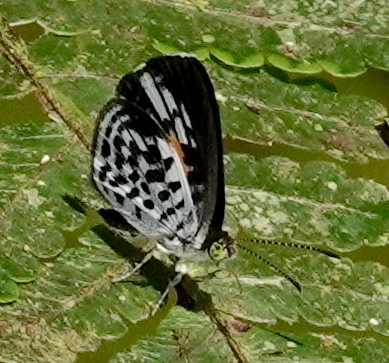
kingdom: Animalia
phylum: Arthropoda
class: Insecta
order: Lepidoptera
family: Riodinidae
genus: Cariomothis
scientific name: Cariomothis erythromelas
